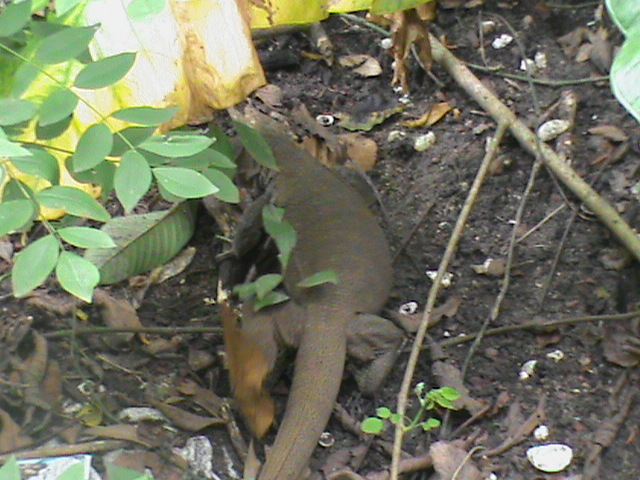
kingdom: Animalia
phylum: Chordata
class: Squamata
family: Varanidae
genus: Varanus
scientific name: Varanus bengalensis
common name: Bengal monitor
